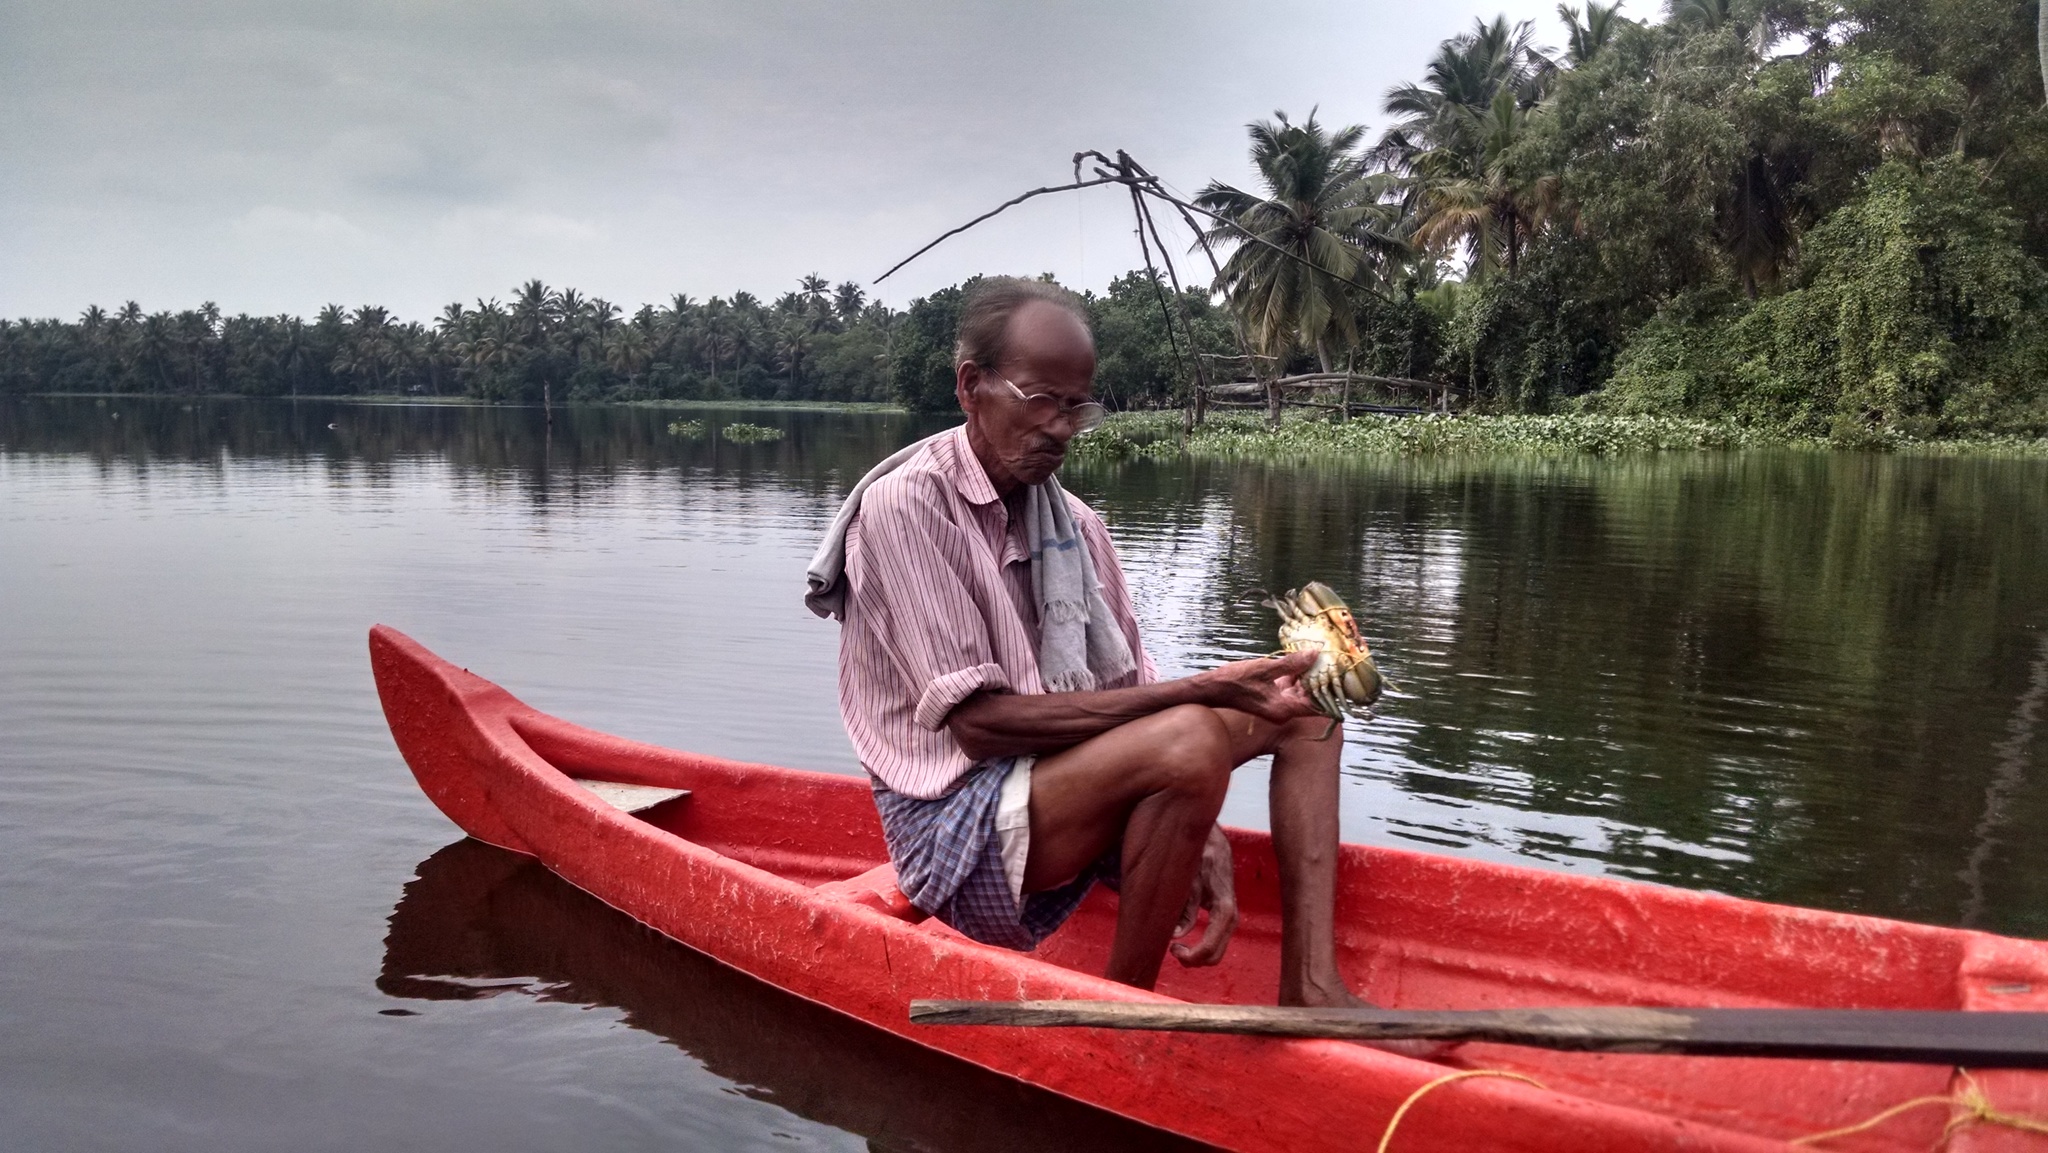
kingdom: Animalia
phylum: Arthropoda
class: Malacostraca
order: Decapoda
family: Portunidae
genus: Scylla
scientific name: Scylla serrata
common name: Giant mud crab
